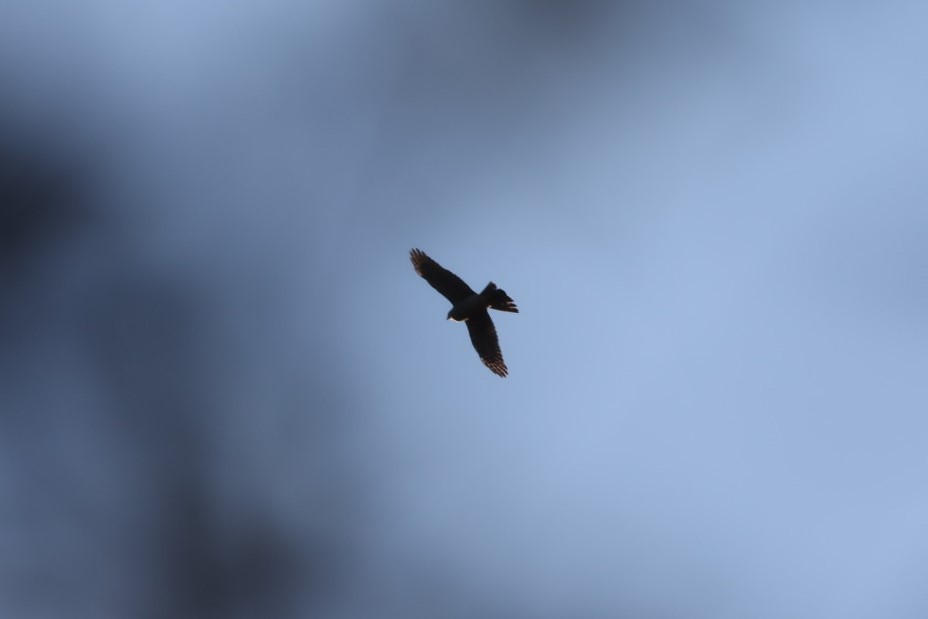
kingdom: Animalia
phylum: Chordata
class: Aves
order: Accipitriformes
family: Accipitridae
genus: Accipiter
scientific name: Accipiter nisus
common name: Eurasian sparrowhawk
